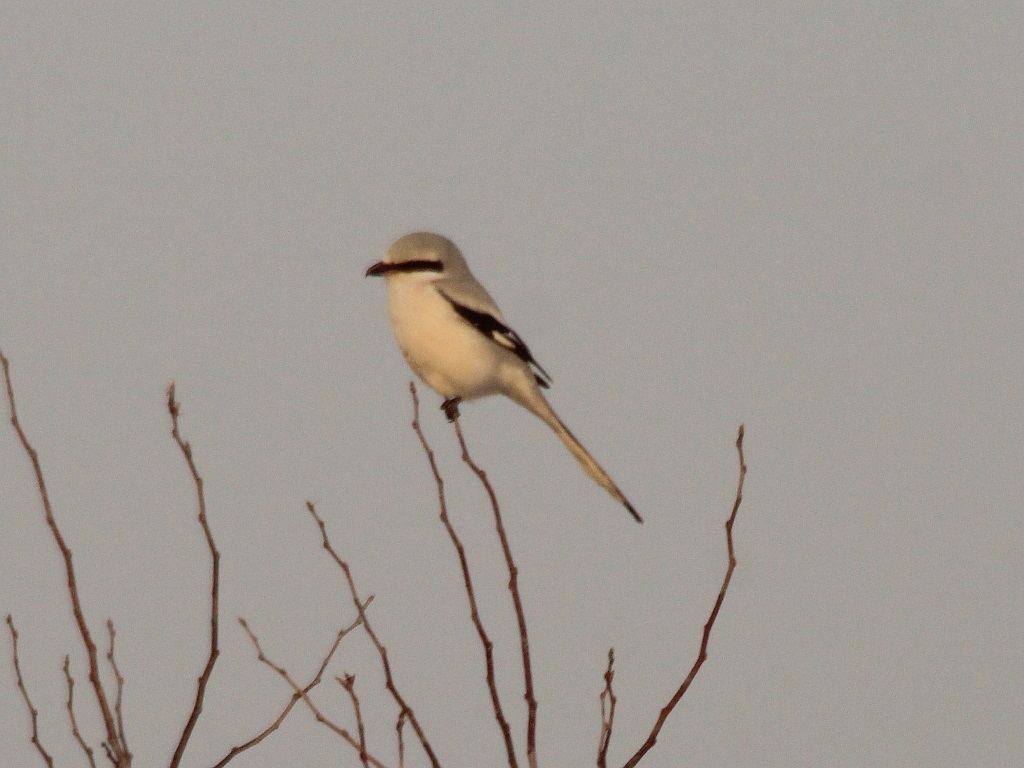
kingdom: Animalia
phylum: Chordata
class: Aves
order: Passeriformes
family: Laniidae
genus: Lanius
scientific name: Lanius sphenocercus
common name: Chinese grey shrike
